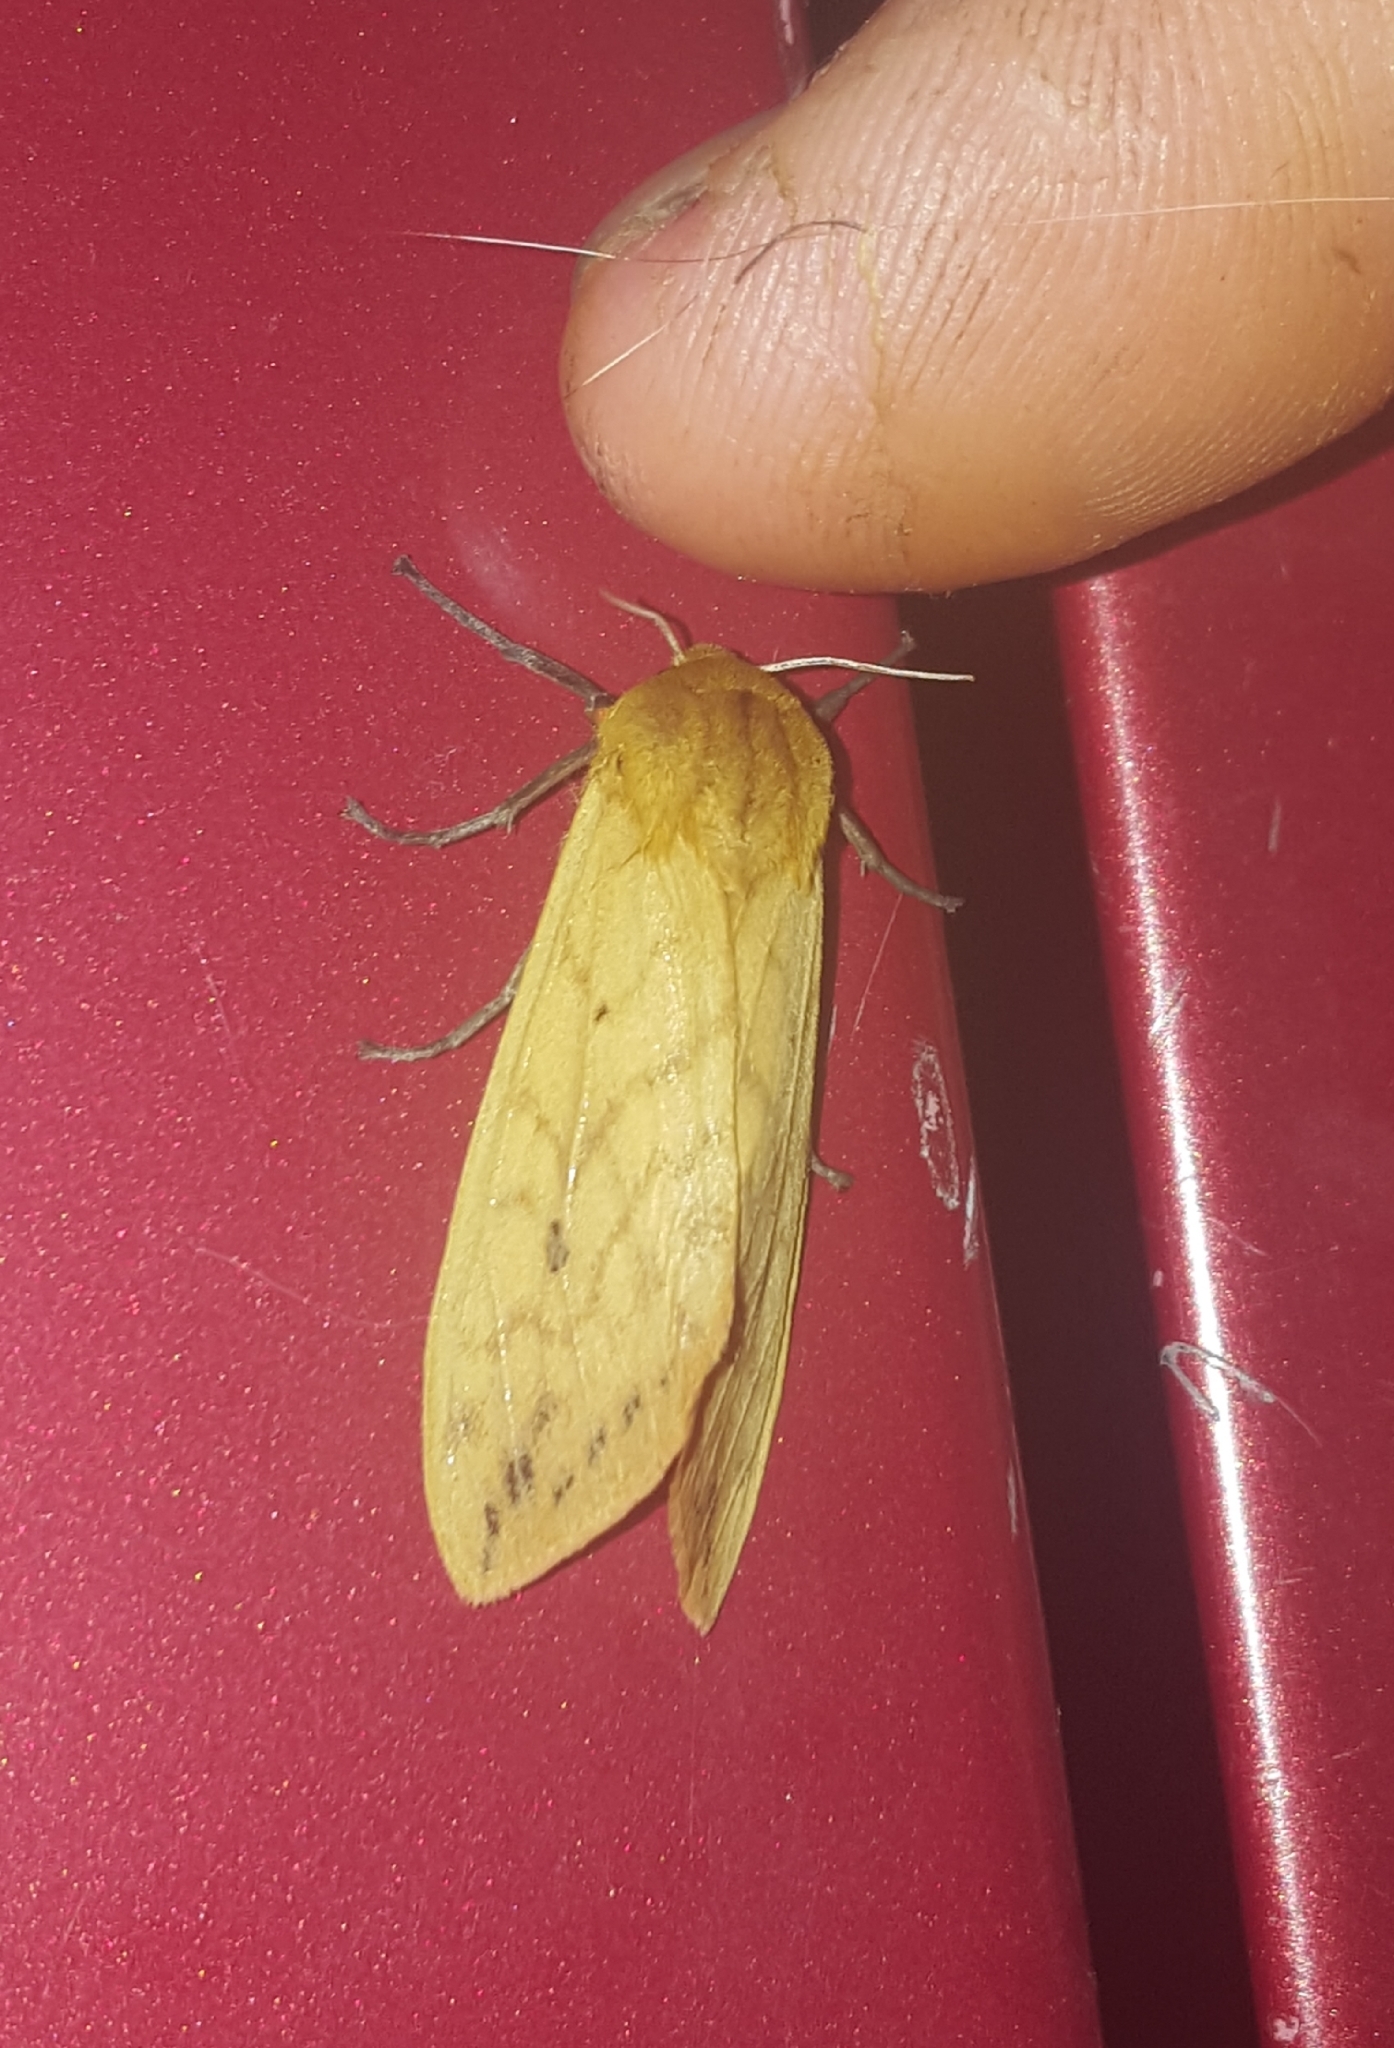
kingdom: Animalia
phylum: Arthropoda
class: Insecta
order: Lepidoptera
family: Erebidae
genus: Pyrrharctia
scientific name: Pyrrharctia isabella
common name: Isabella tiger moth
